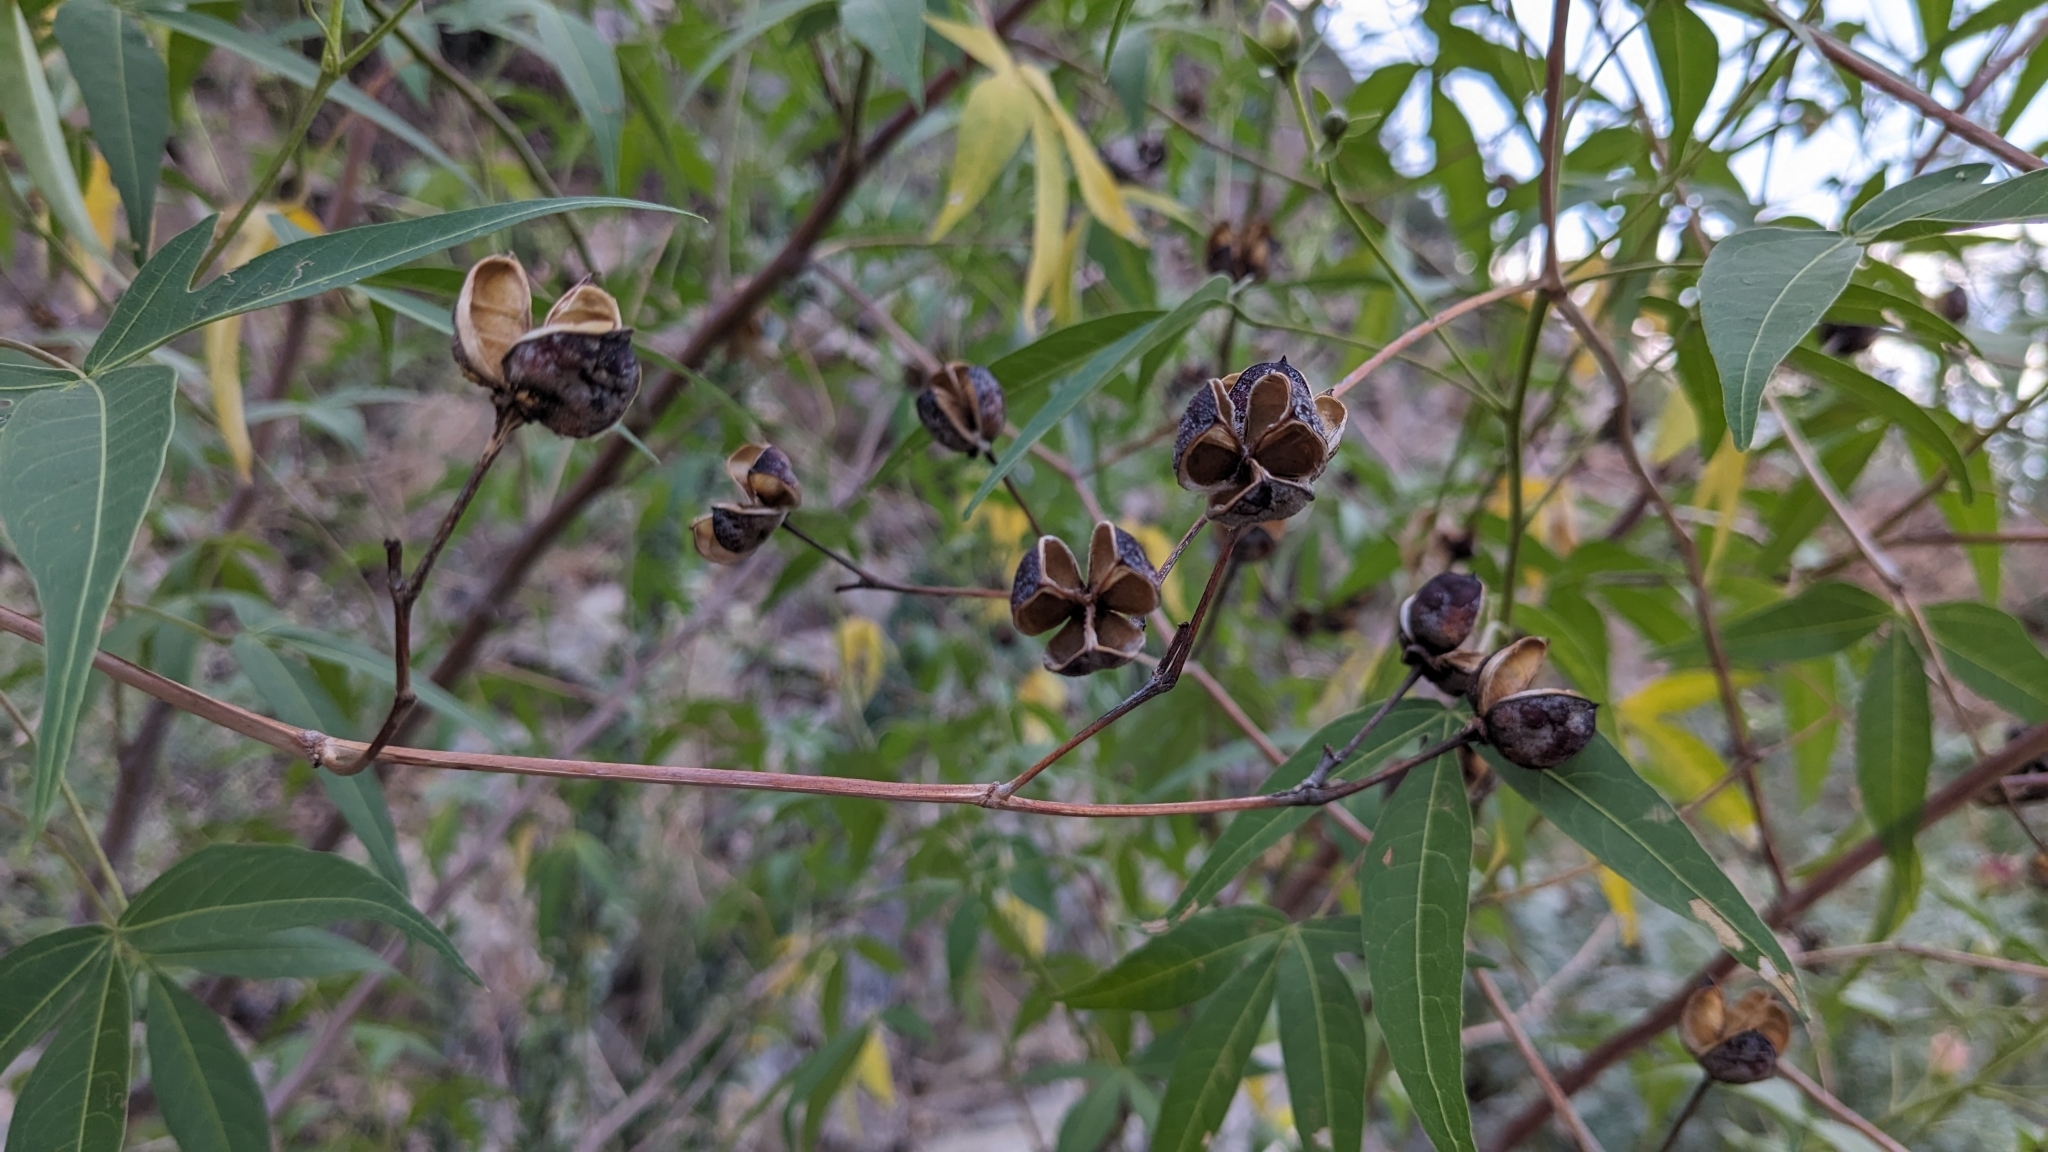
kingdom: Plantae
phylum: Tracheophyta
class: Magnoliopsida
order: Malvales
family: Malvaceae
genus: Gossypium
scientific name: Gossypium thurberi
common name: Desert cotton
